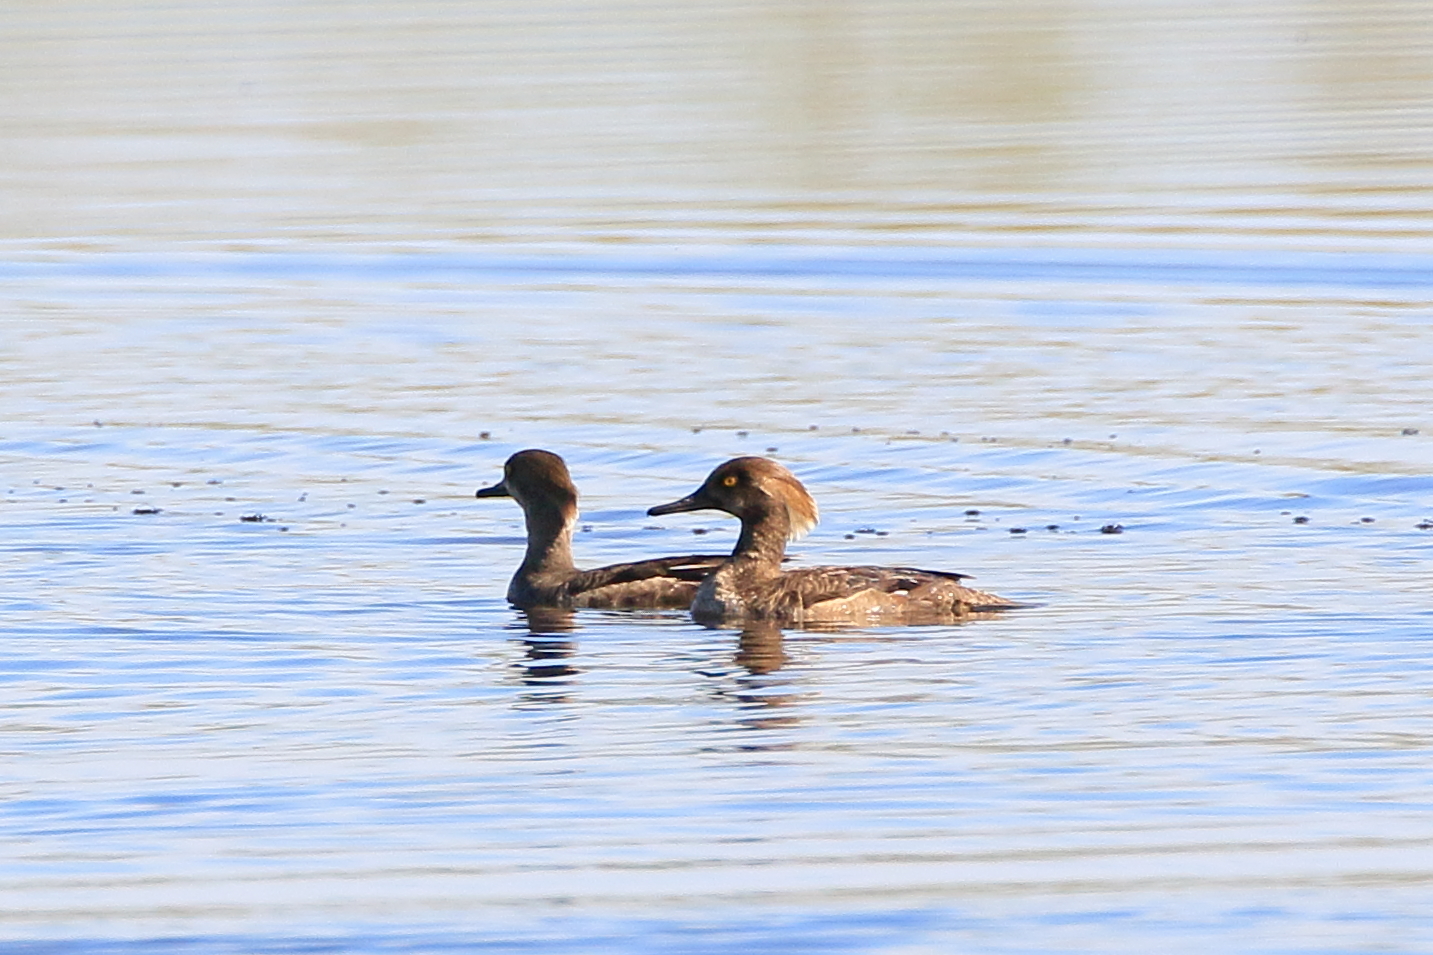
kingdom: Animalia
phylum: Chordata
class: Aves
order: Anseriformes
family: Anatidae
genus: Lophodytes
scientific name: Lophodytes cucullatus
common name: Hooded merganser
